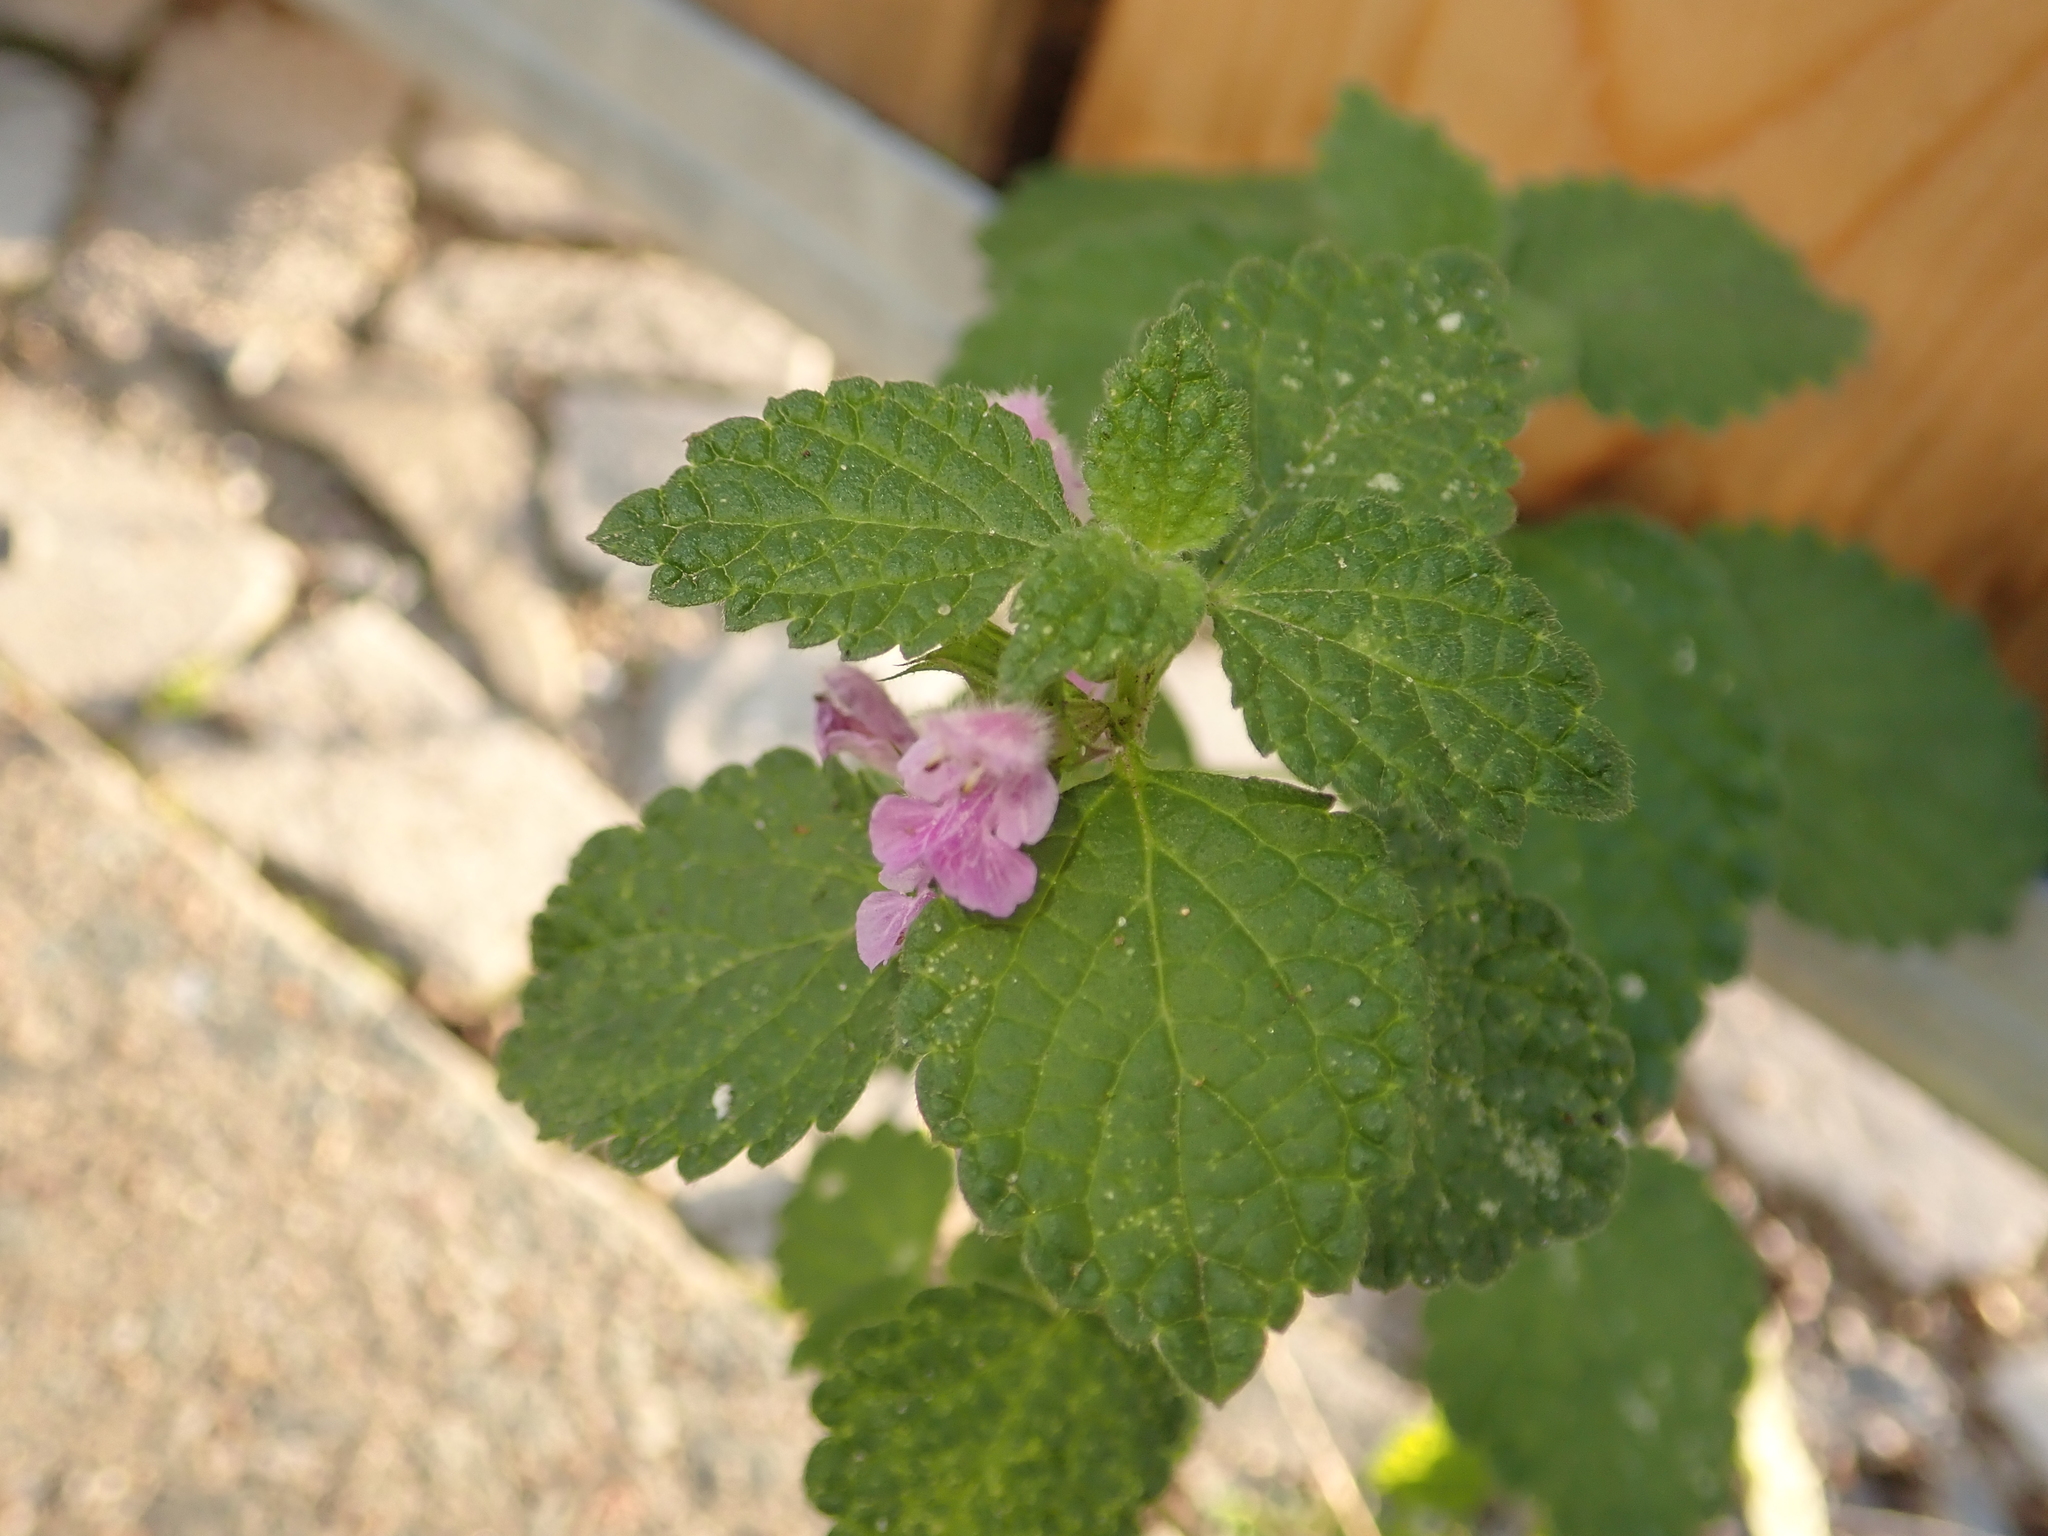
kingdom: Plantae
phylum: Tracheophyta
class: Magnoliopsida
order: Lamiales
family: Lamiaceae
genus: Ballota
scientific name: Ballota nigra
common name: Black horehound
